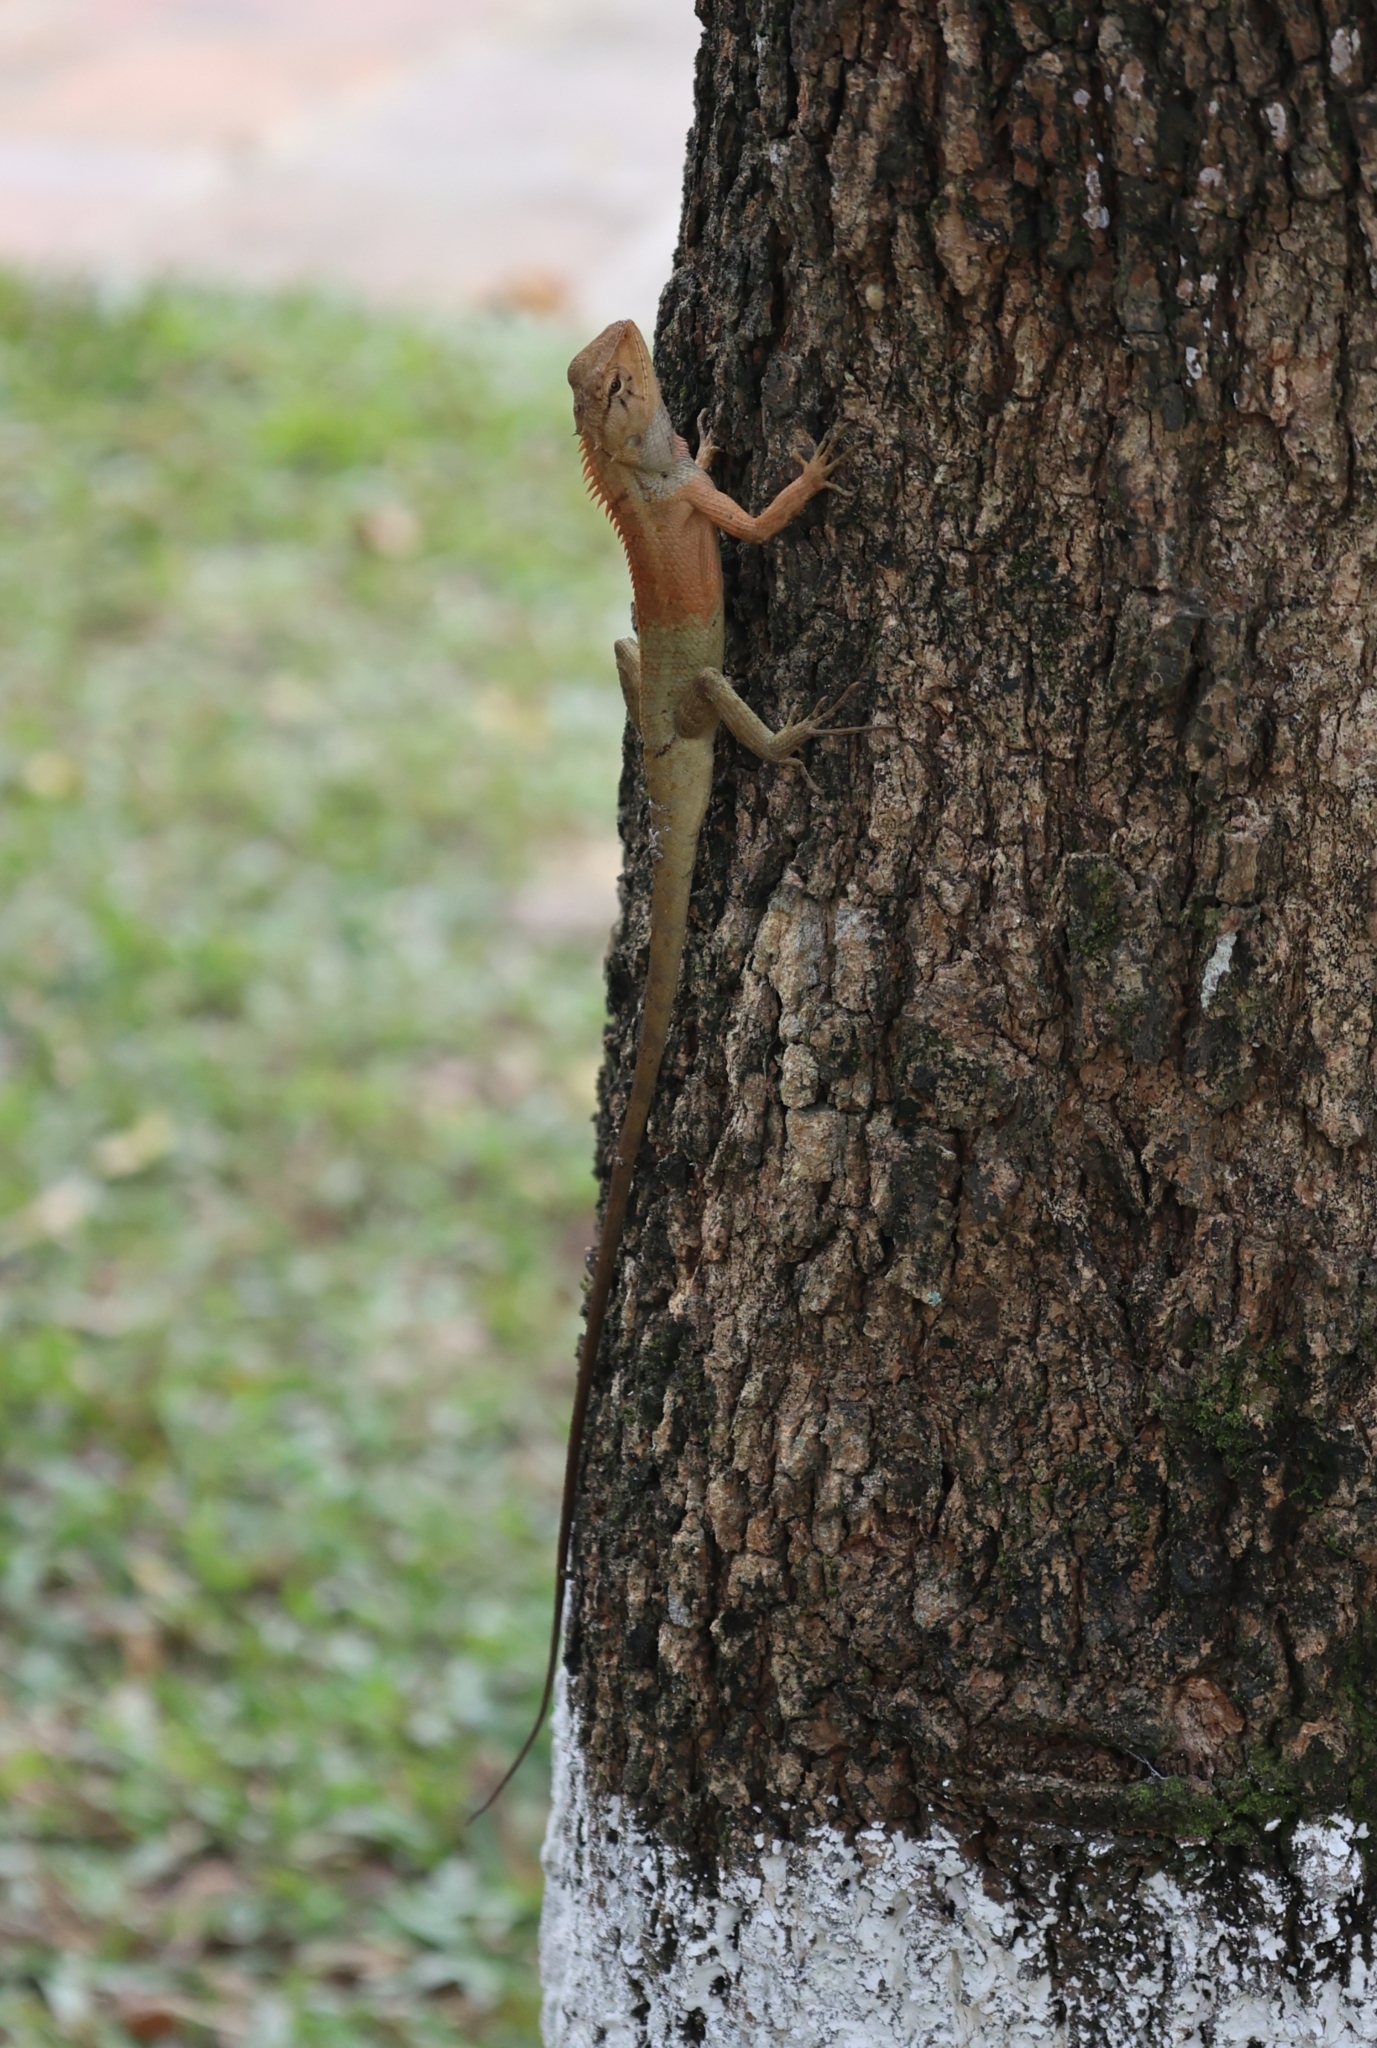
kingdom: Animalia
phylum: Chordata
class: Squamata
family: Agamidae
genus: Calotes
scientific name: Calotes versicolor
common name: Oriental garden lizard
